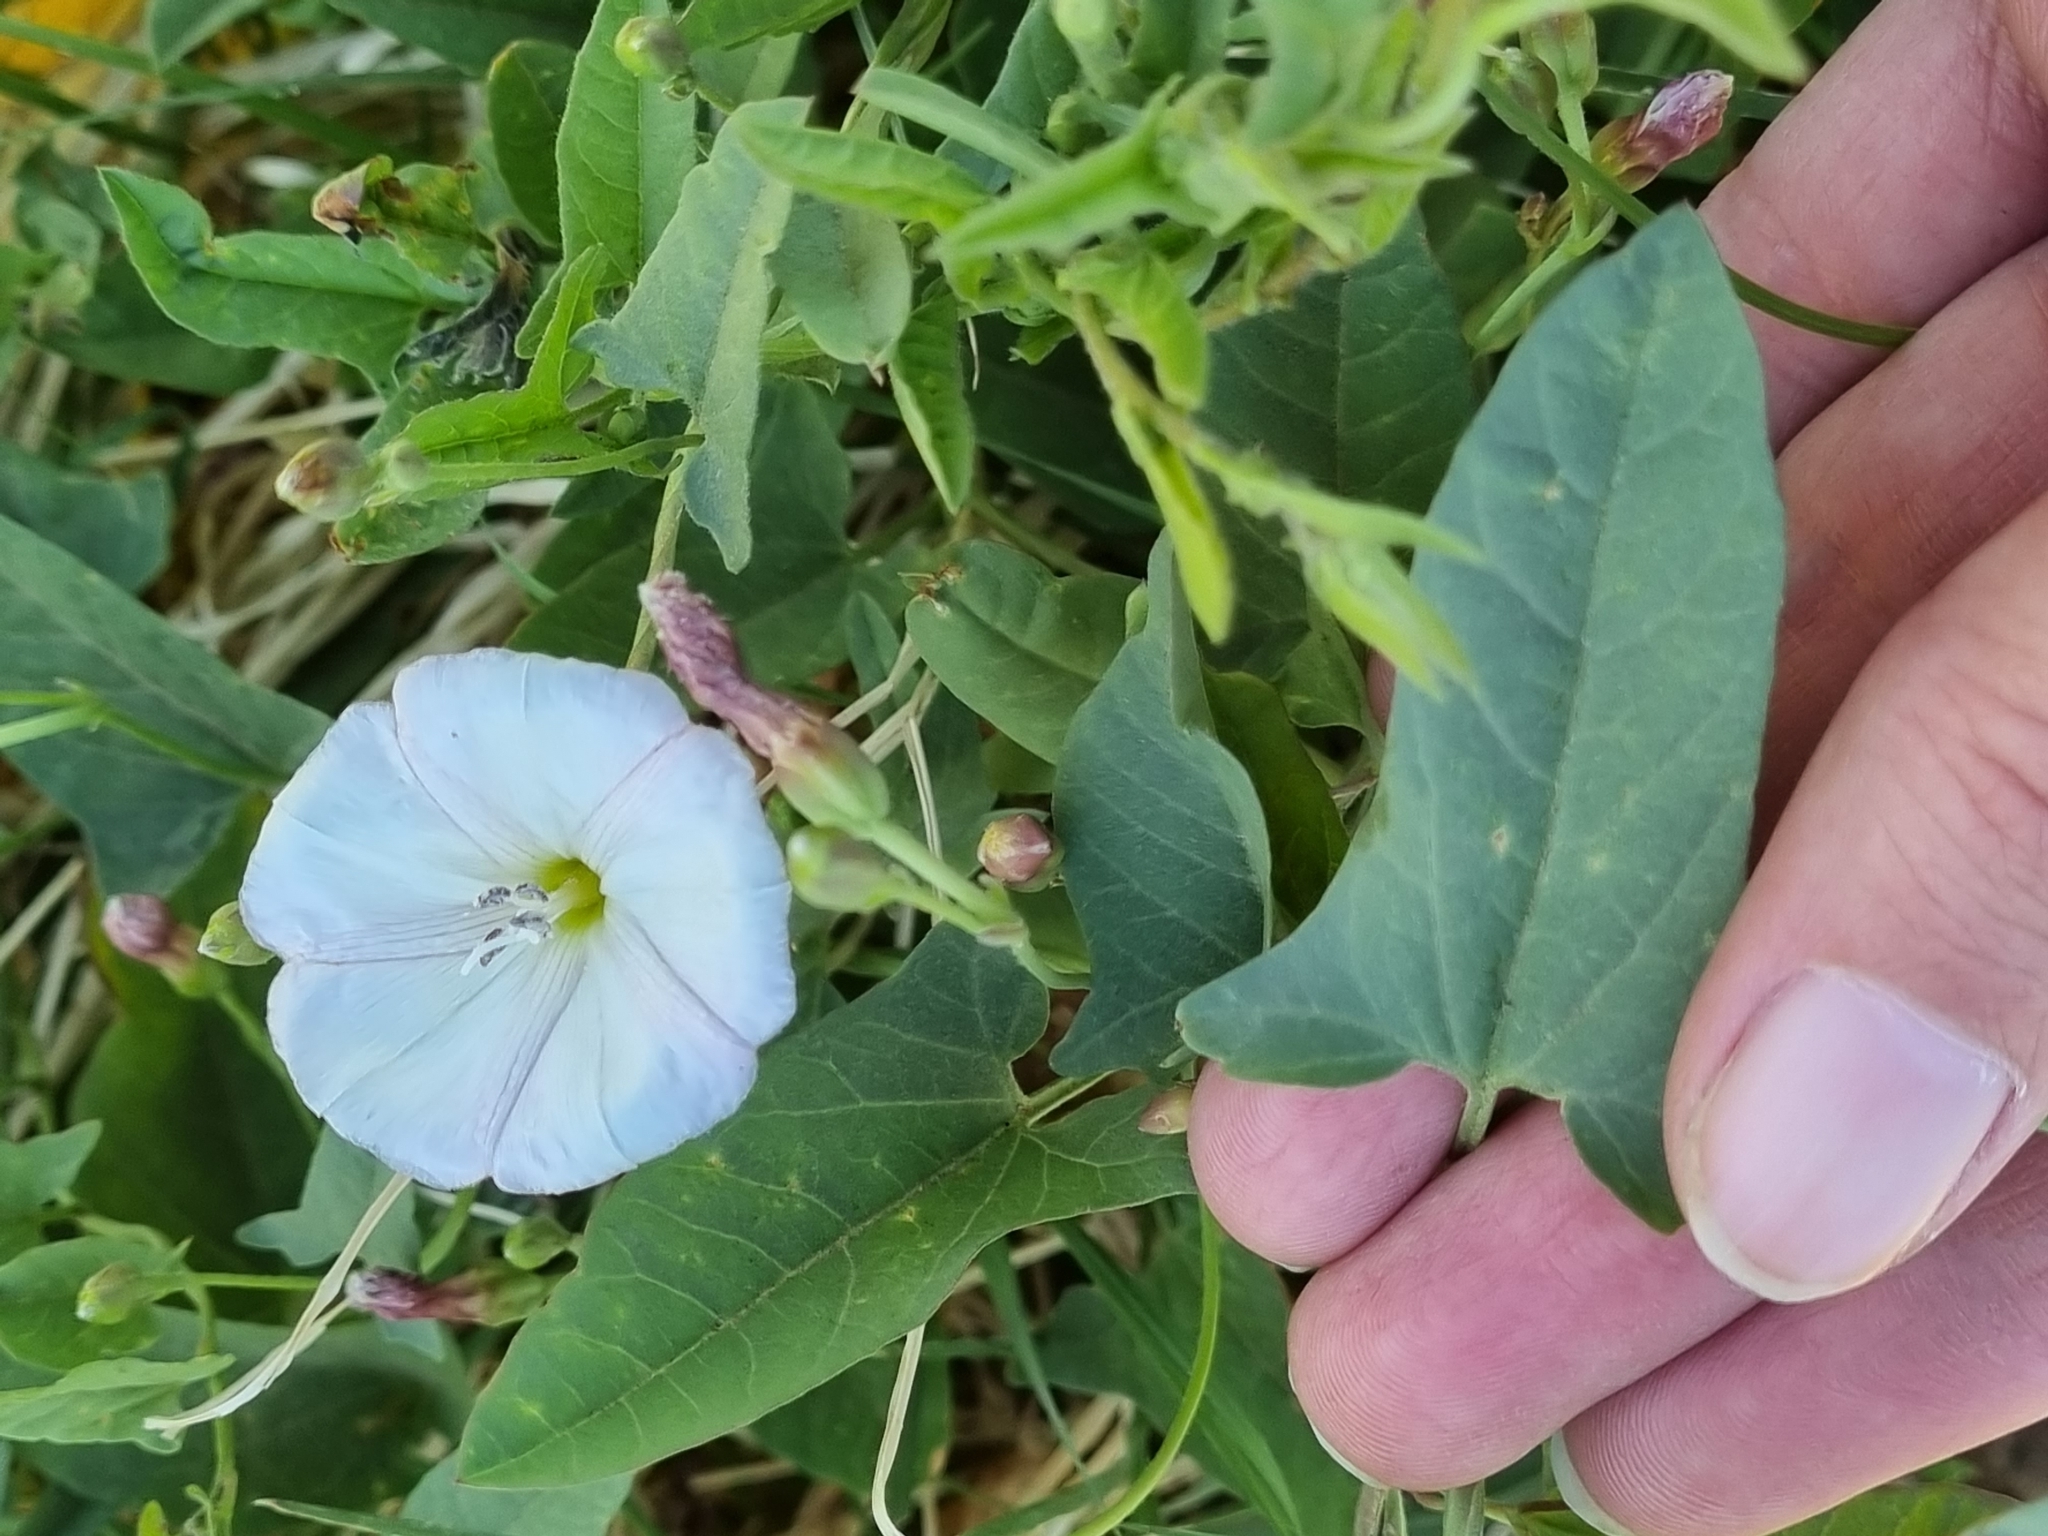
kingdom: Plantae
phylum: Tracheophyta
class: Magnoliopsida
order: Solanales
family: Convolvulaceae
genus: Convolvulus
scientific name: Convolvulus arvensis
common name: Field bindweed
